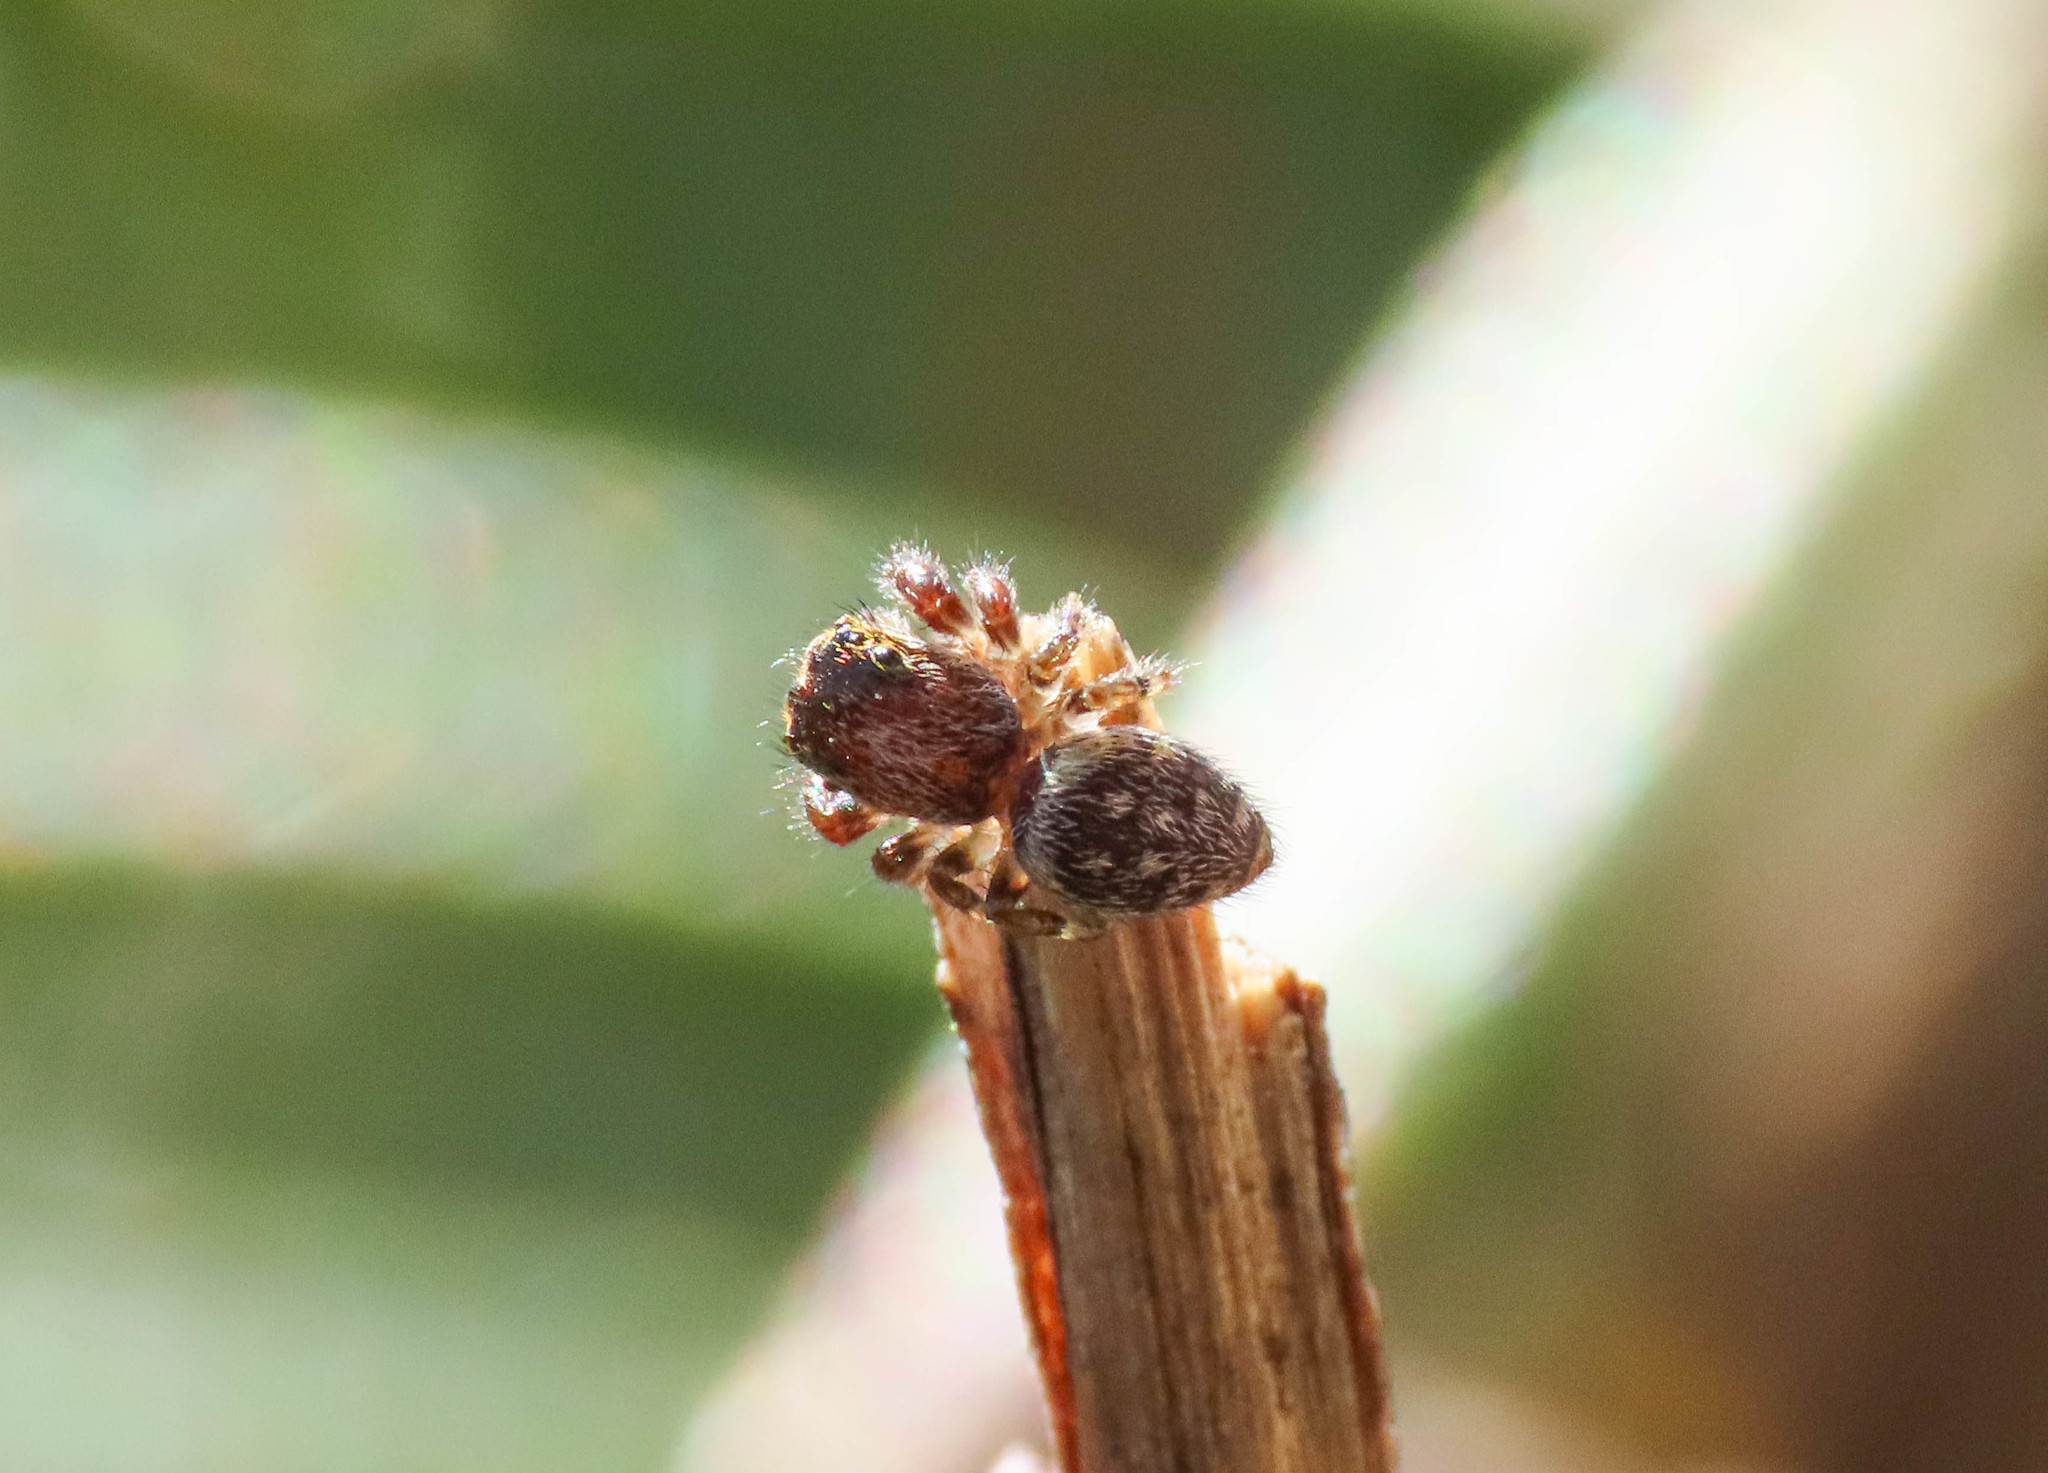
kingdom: Animalia
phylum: Arthropoda
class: Arachnida
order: Araneae
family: Salticidae
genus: Macaroeris
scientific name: Macaroeris nidicolens
